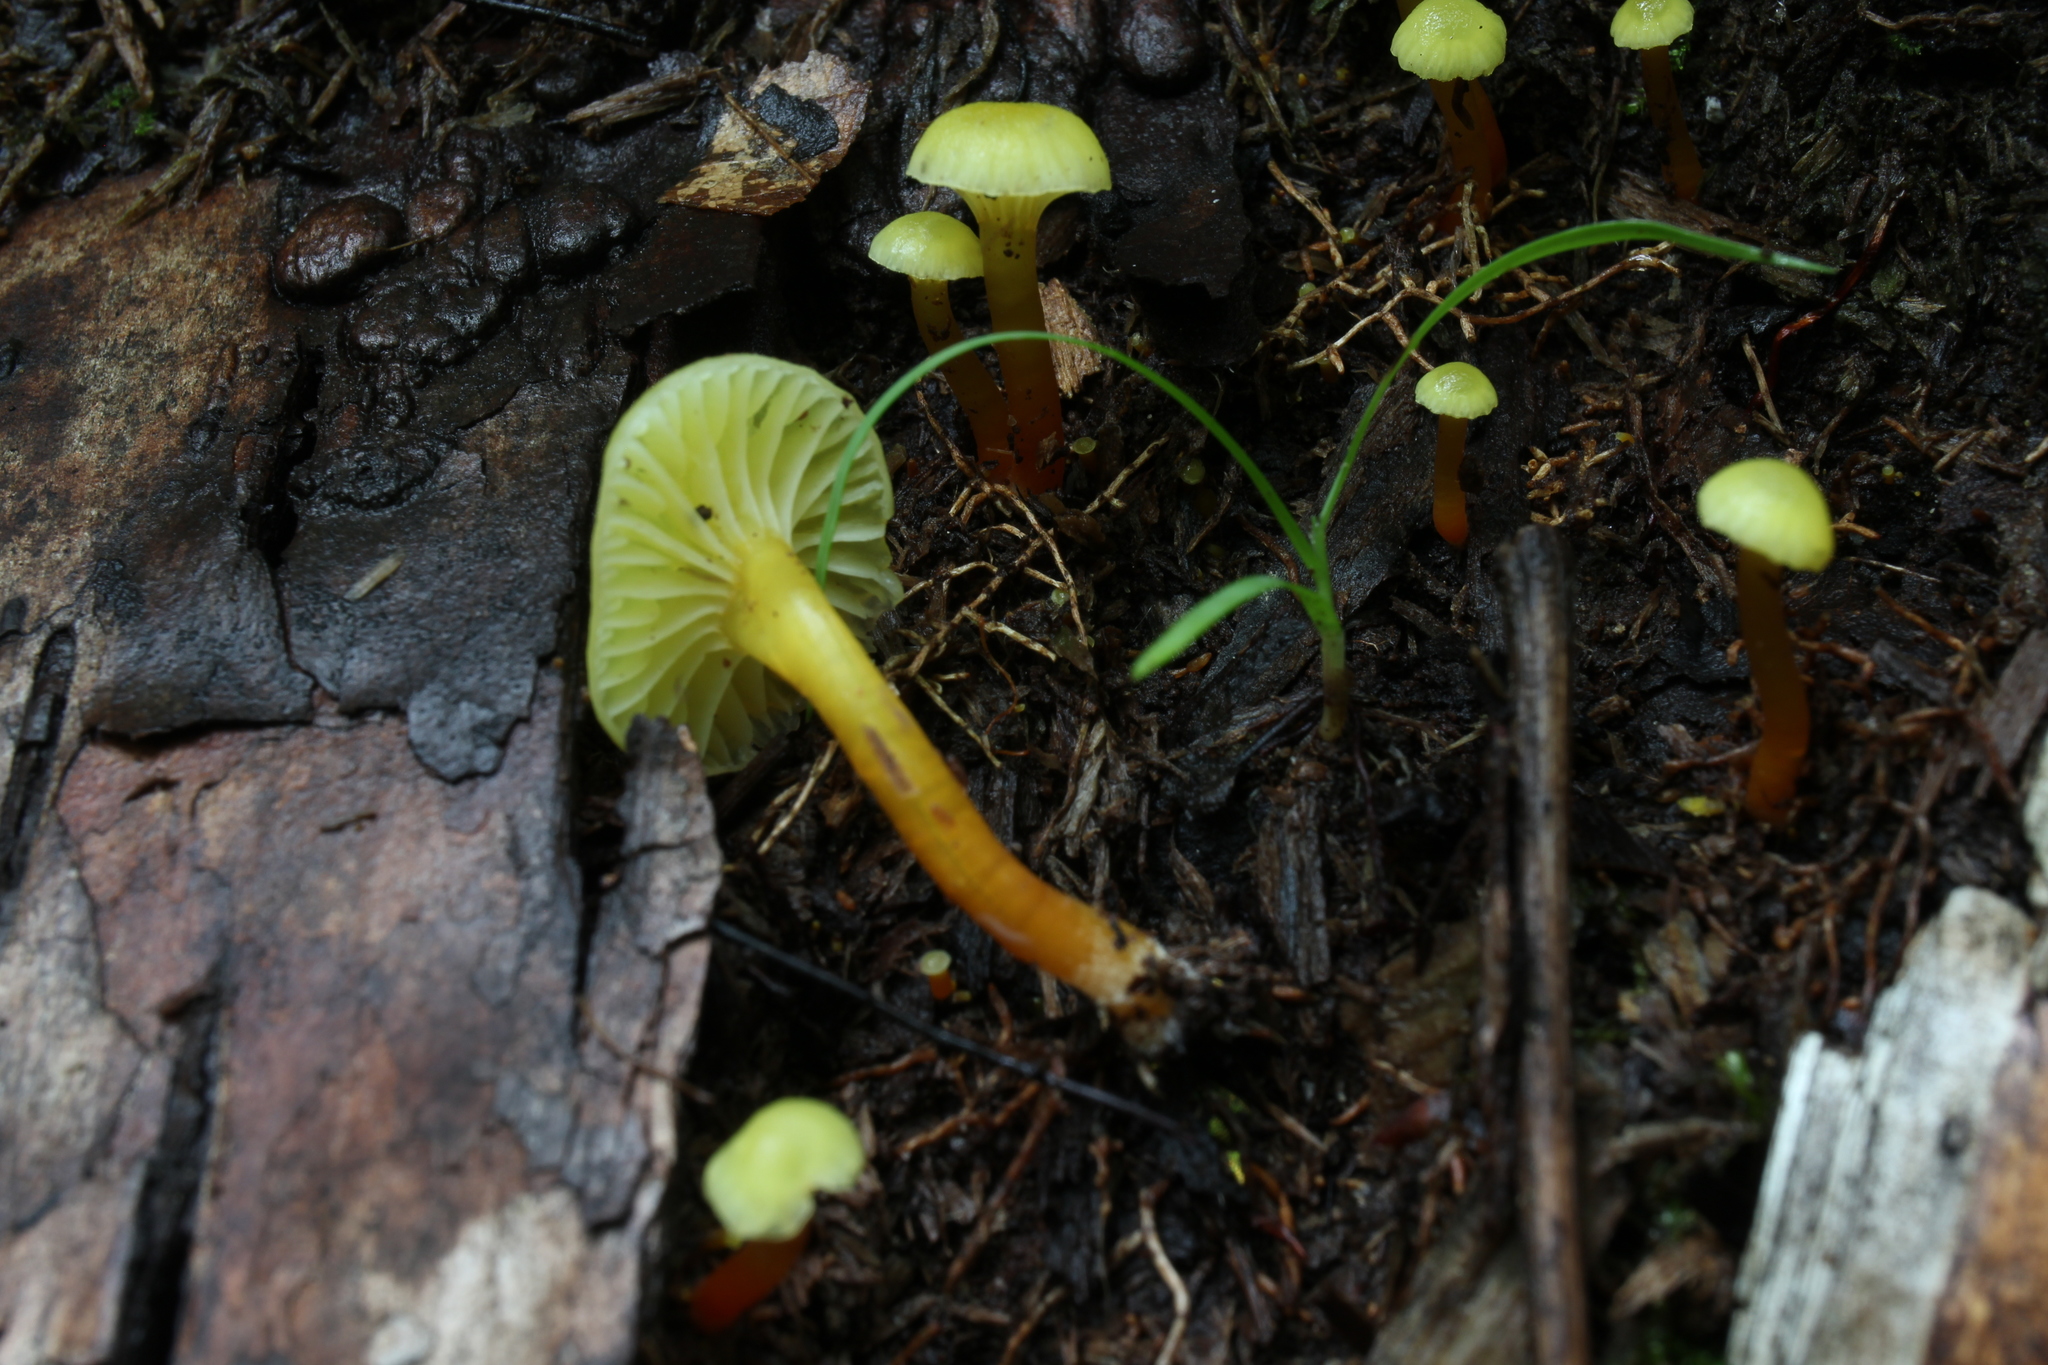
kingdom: Fungi
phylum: Basidiomycota
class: Agaricomycetes
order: Agaricales
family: Hygrophoraceae
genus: Hygrocybe
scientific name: Hygrocybe parvula
